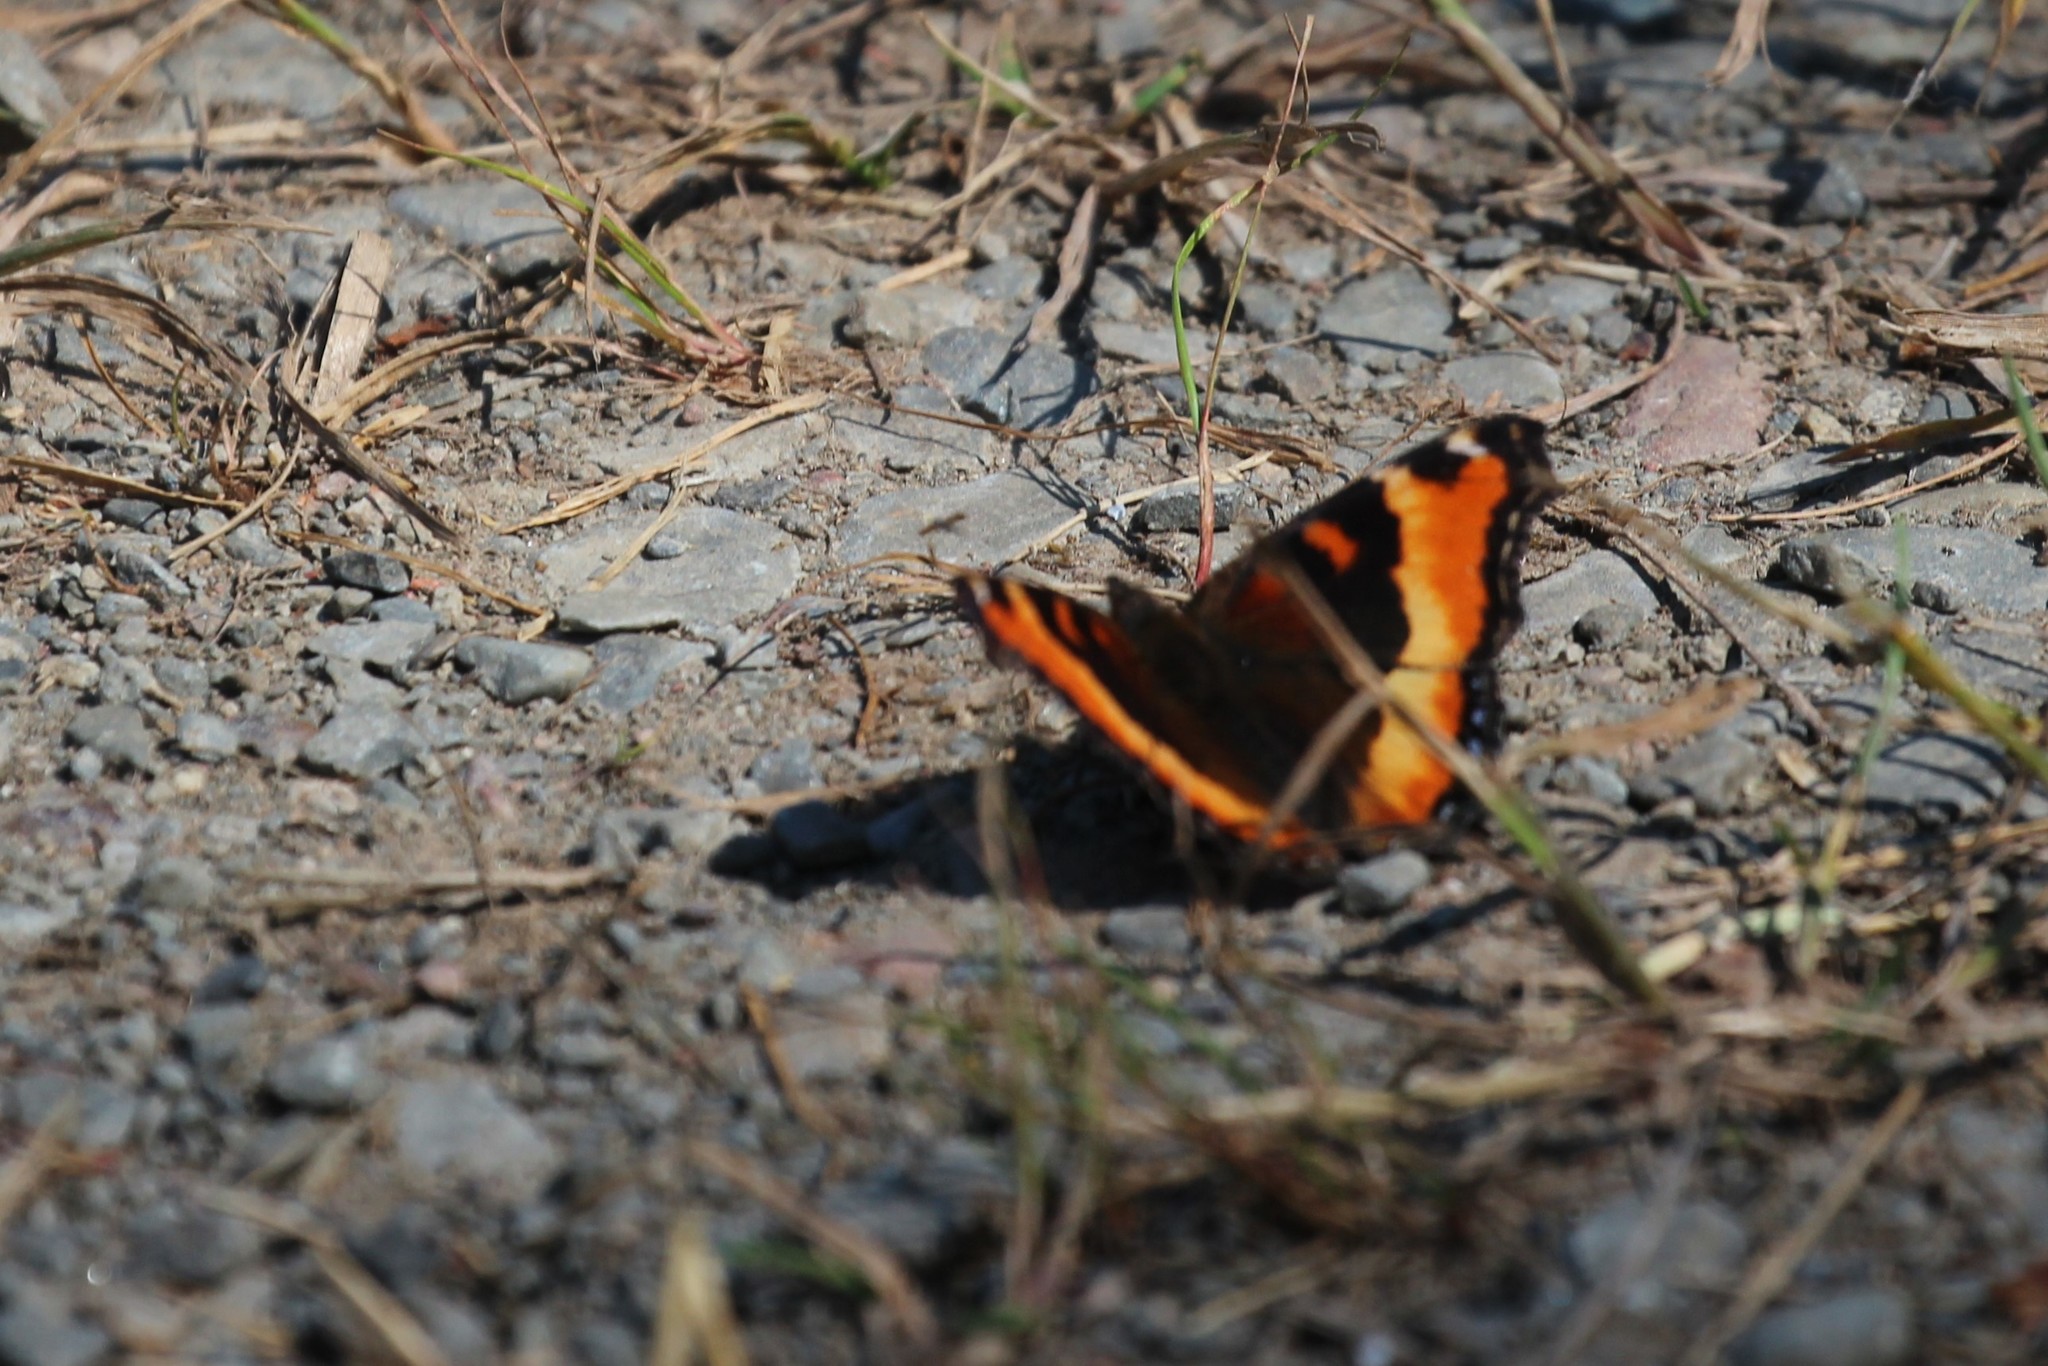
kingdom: Animalia
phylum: Arthropoda
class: Insecta
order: Lepidoptera
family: Nymphalidae
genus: Aglais
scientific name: Aglais milberti
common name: Milbert's tortoiseshell
